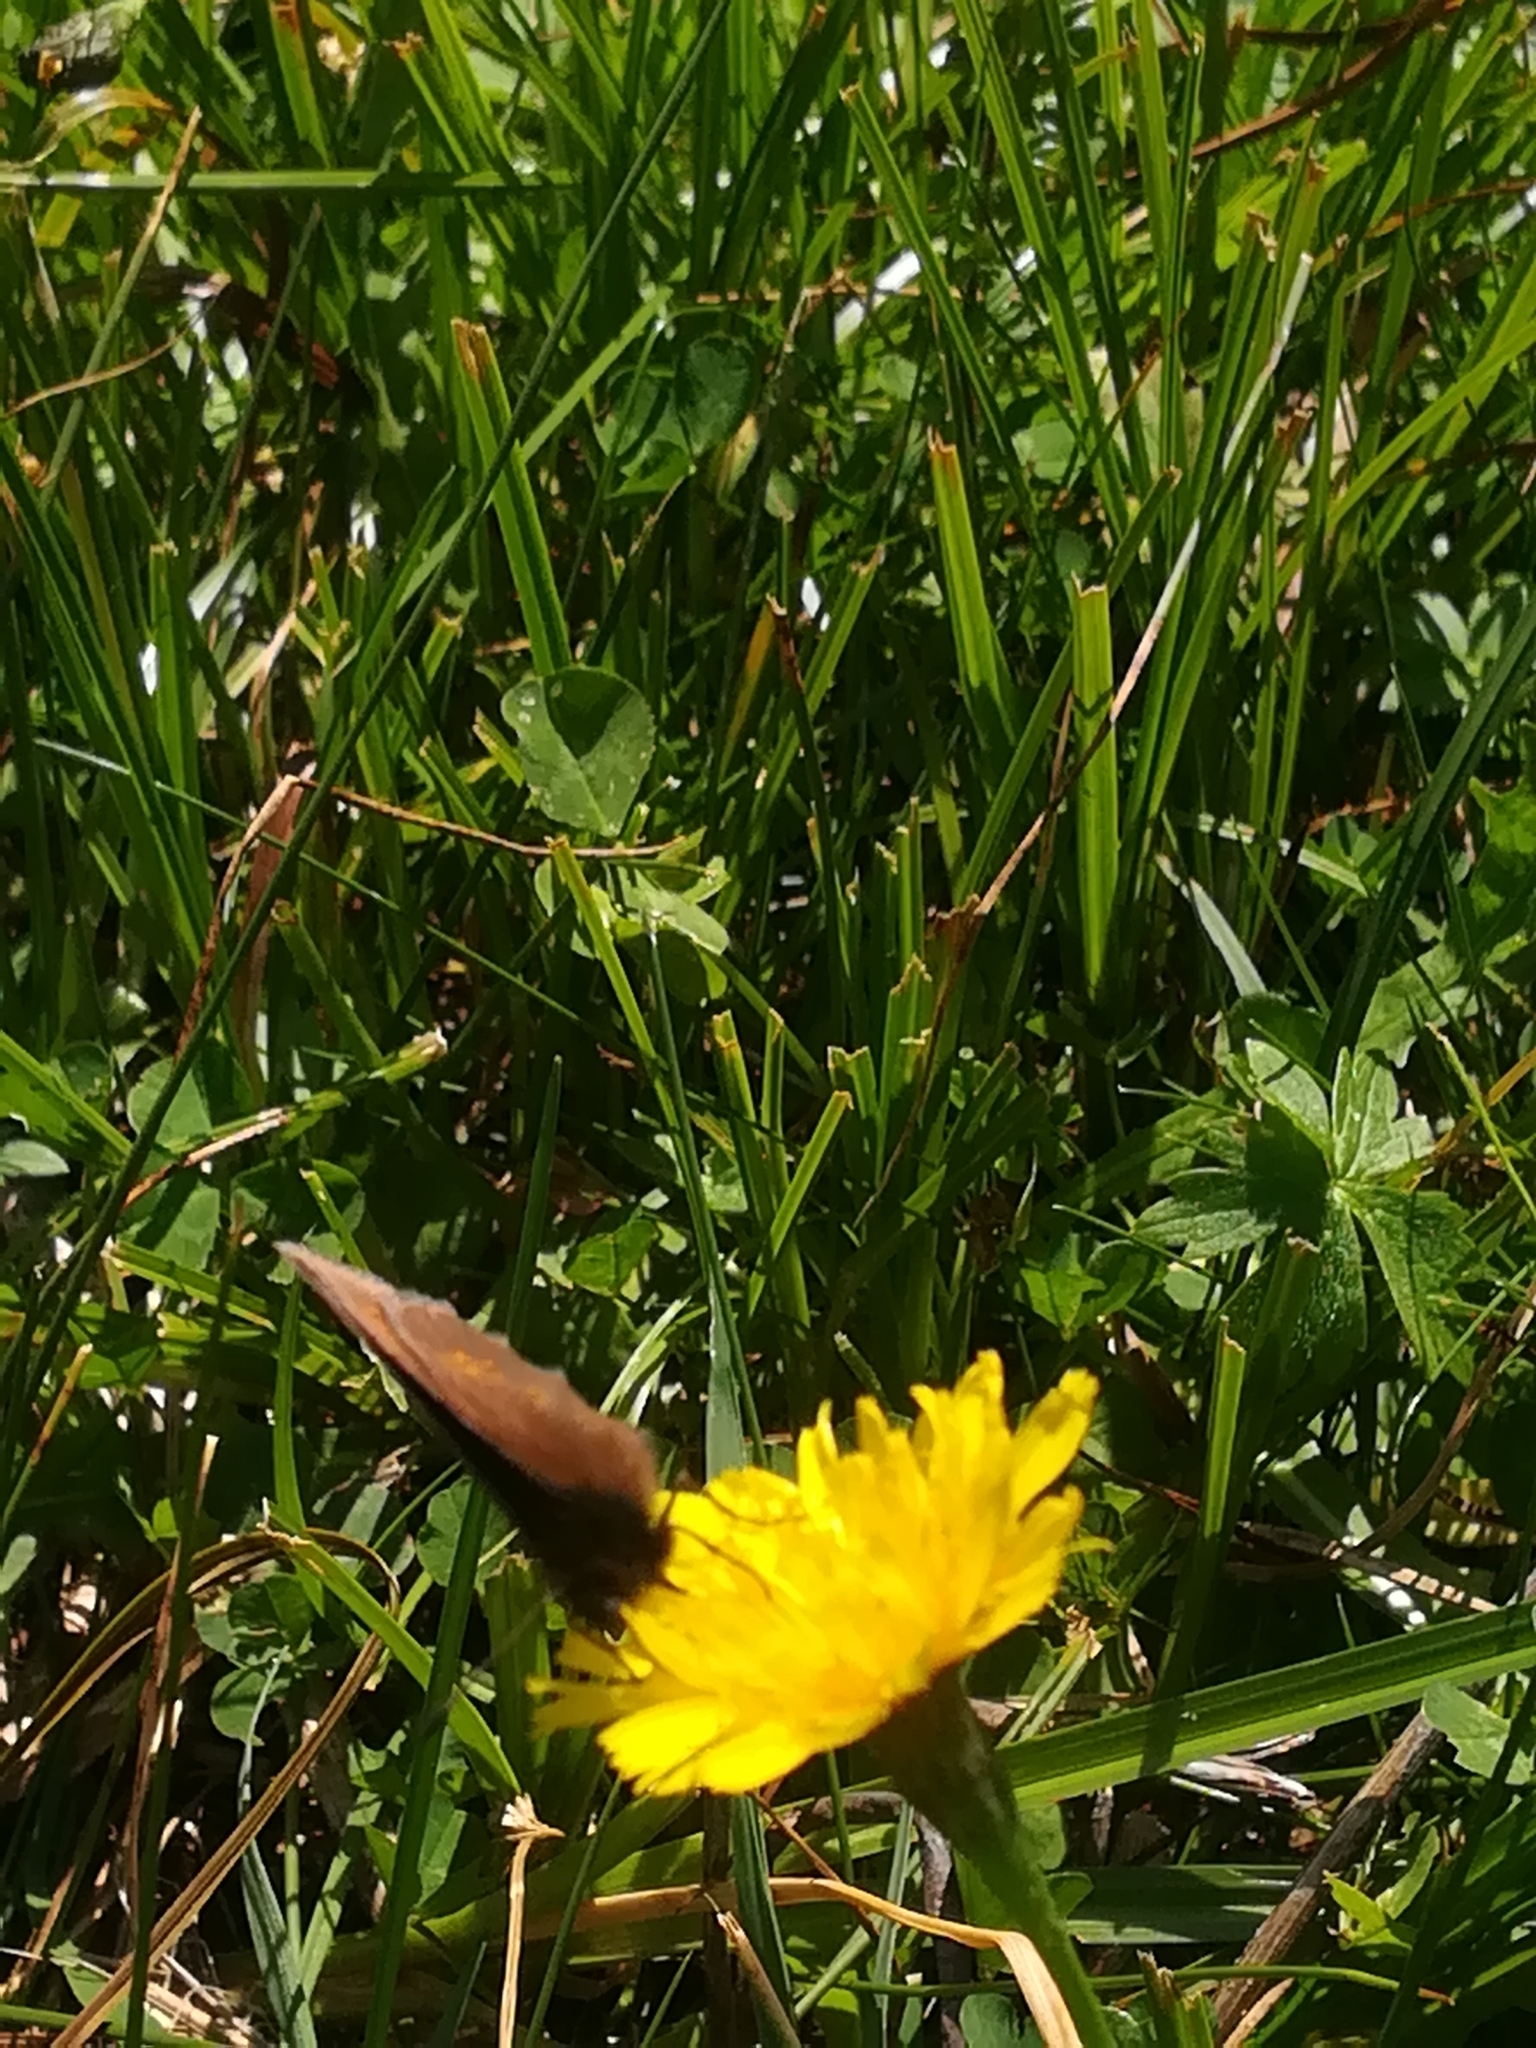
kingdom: Animalia
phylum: Arthropoda
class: Insecta
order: Lepidoptera
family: Nymphalidae
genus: Erebia
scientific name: Erebia melampus
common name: Lesser mountain ringlet
